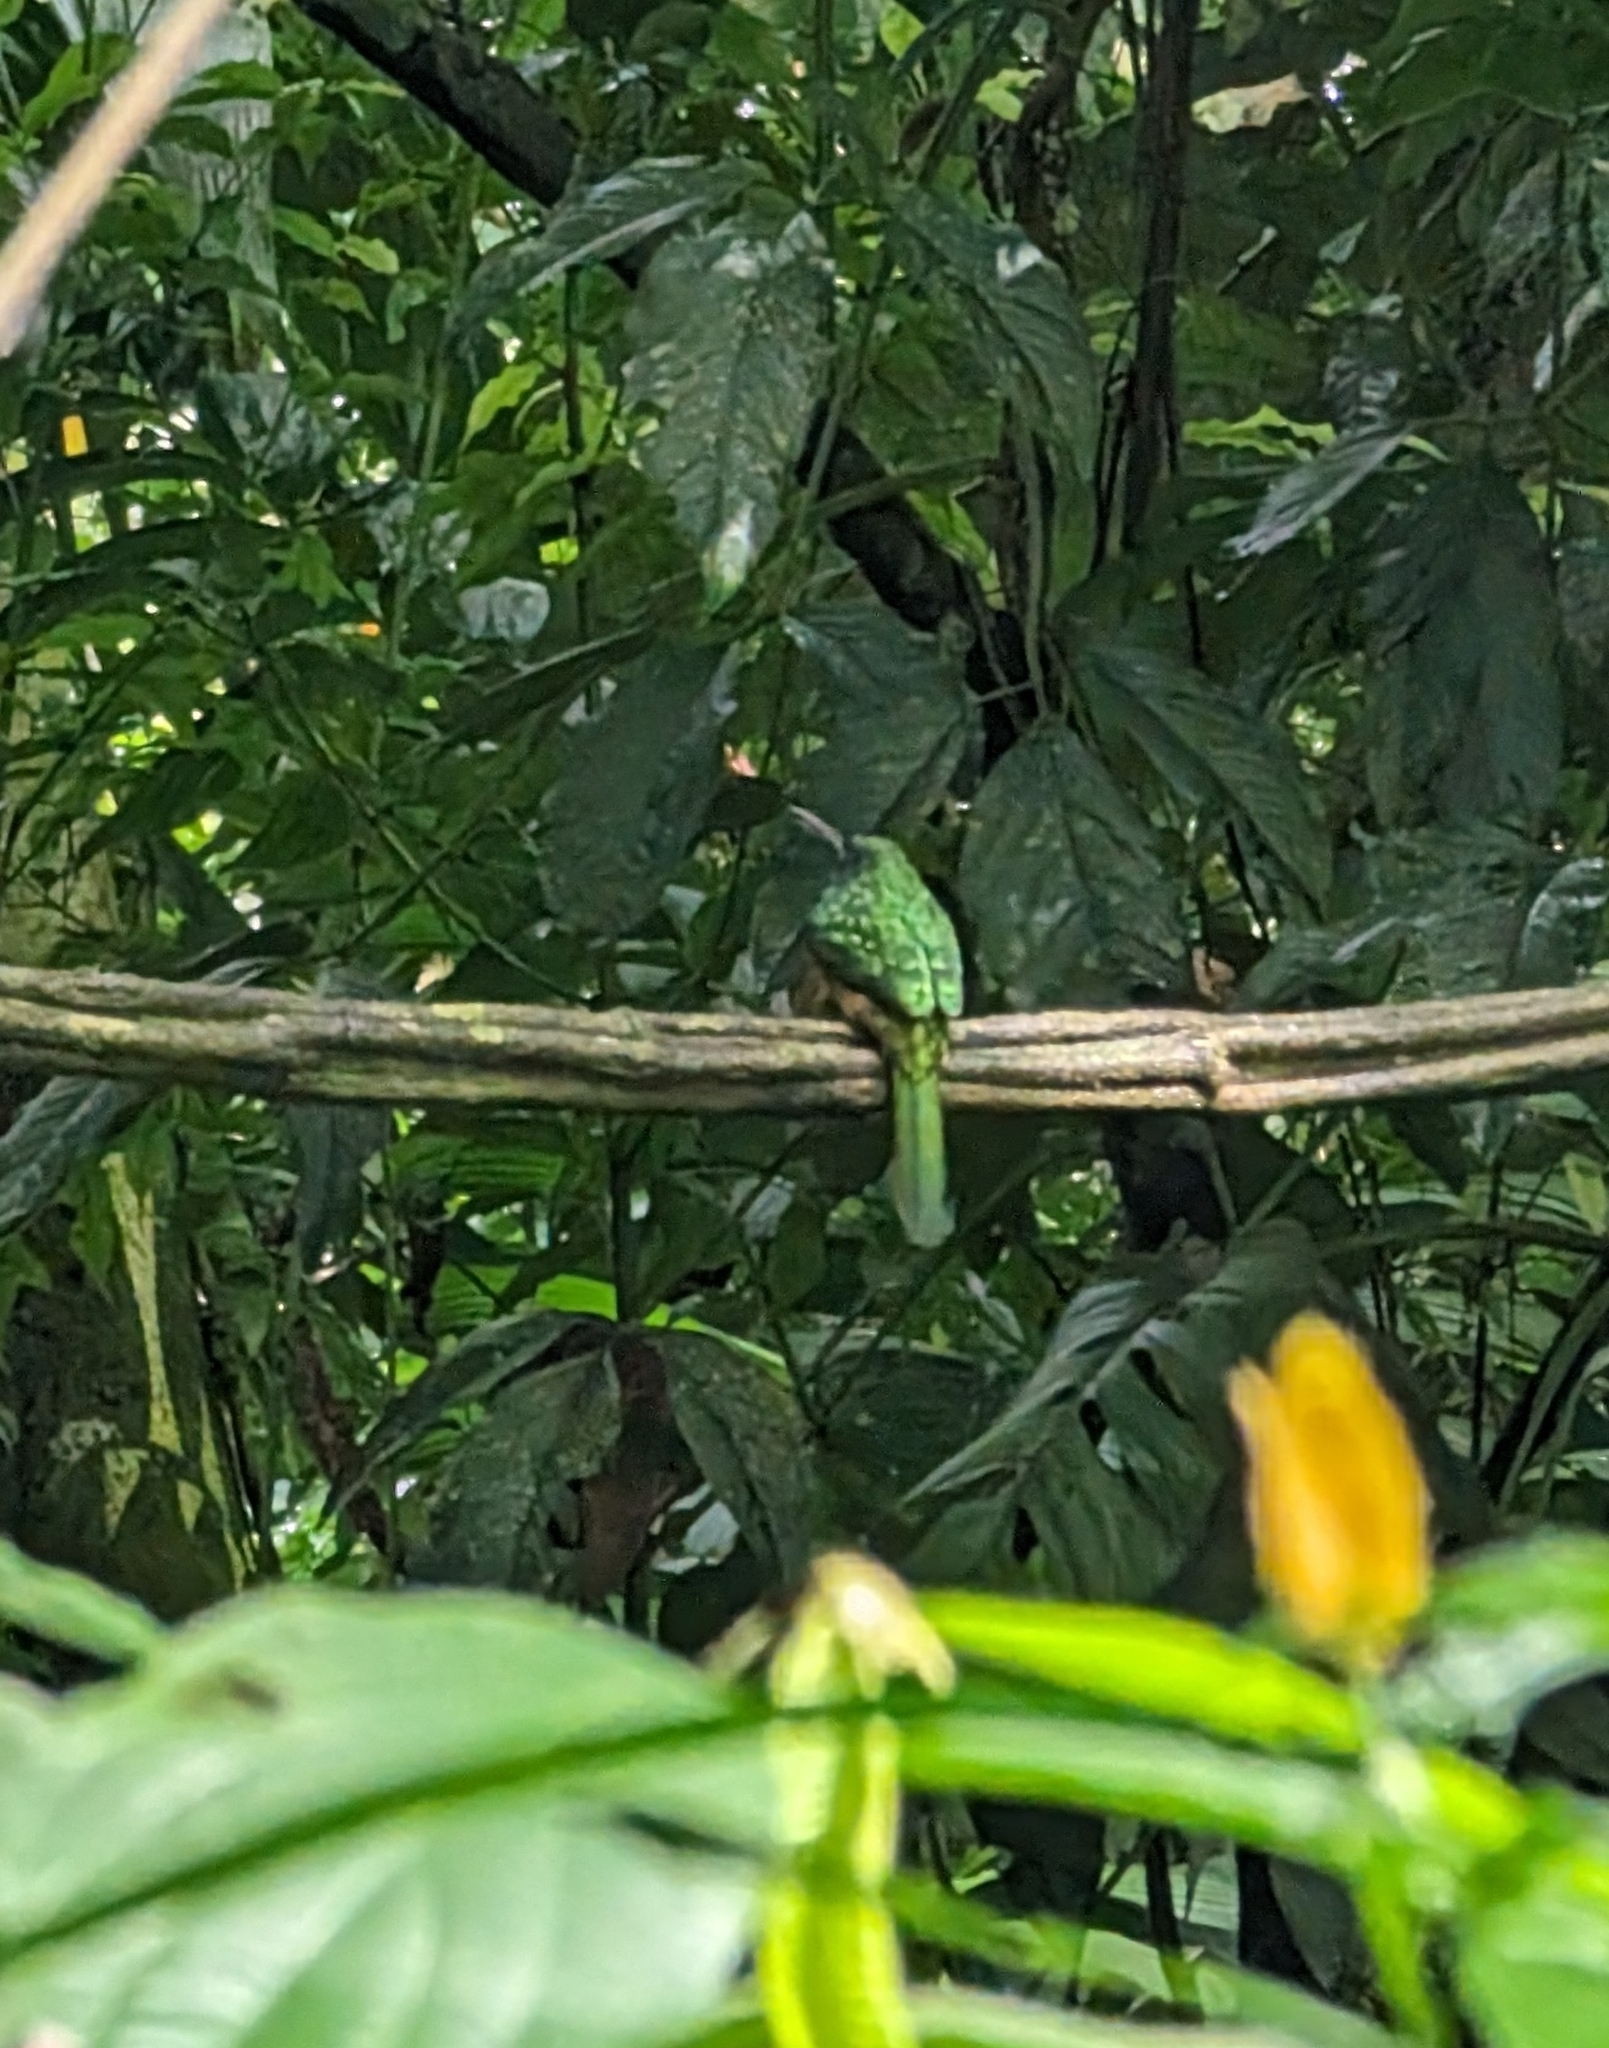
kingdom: Animalia
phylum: Chordata
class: Aves
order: Piciformes
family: Galbulidae
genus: Galbula
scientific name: Galbula ruficauda
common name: Rufous-tailed jacamar
